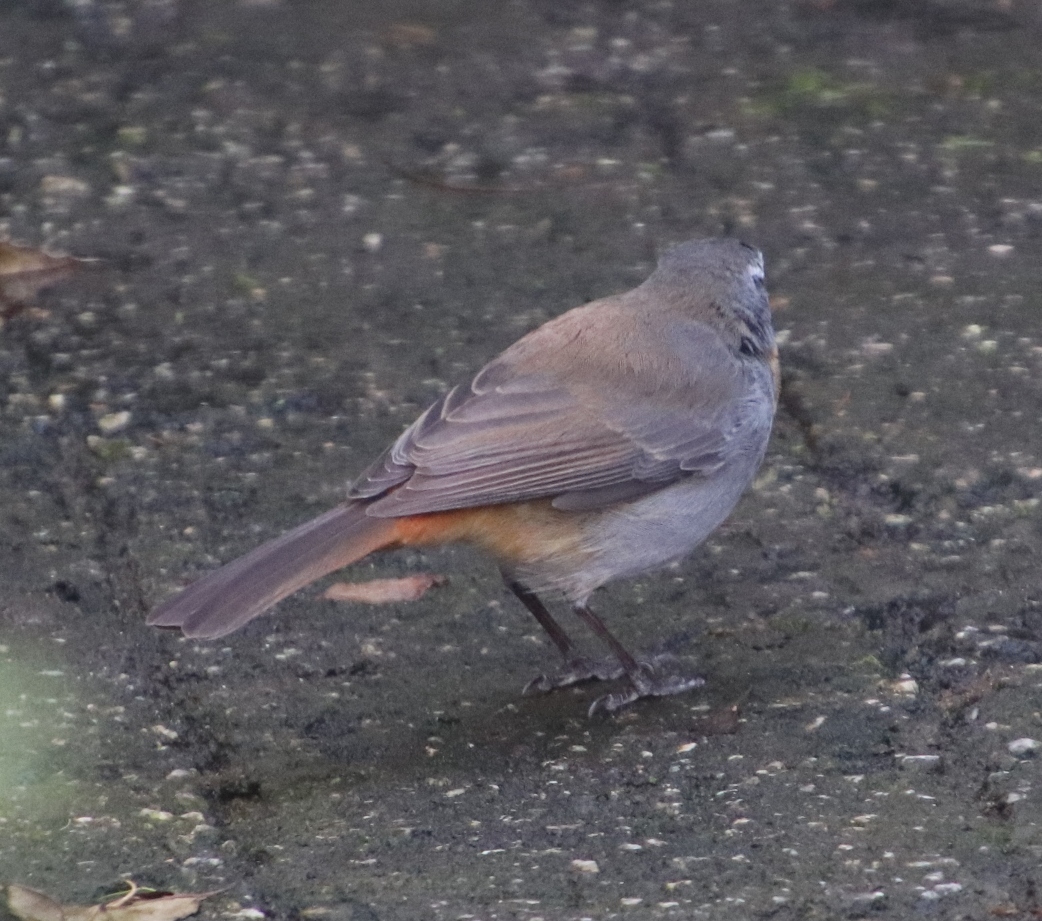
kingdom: Animalia
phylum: Chordata
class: Aves
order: Passeriformes
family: Muscicapidae
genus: Cossypha
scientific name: Cossypha caffra
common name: Cape robin-chat
